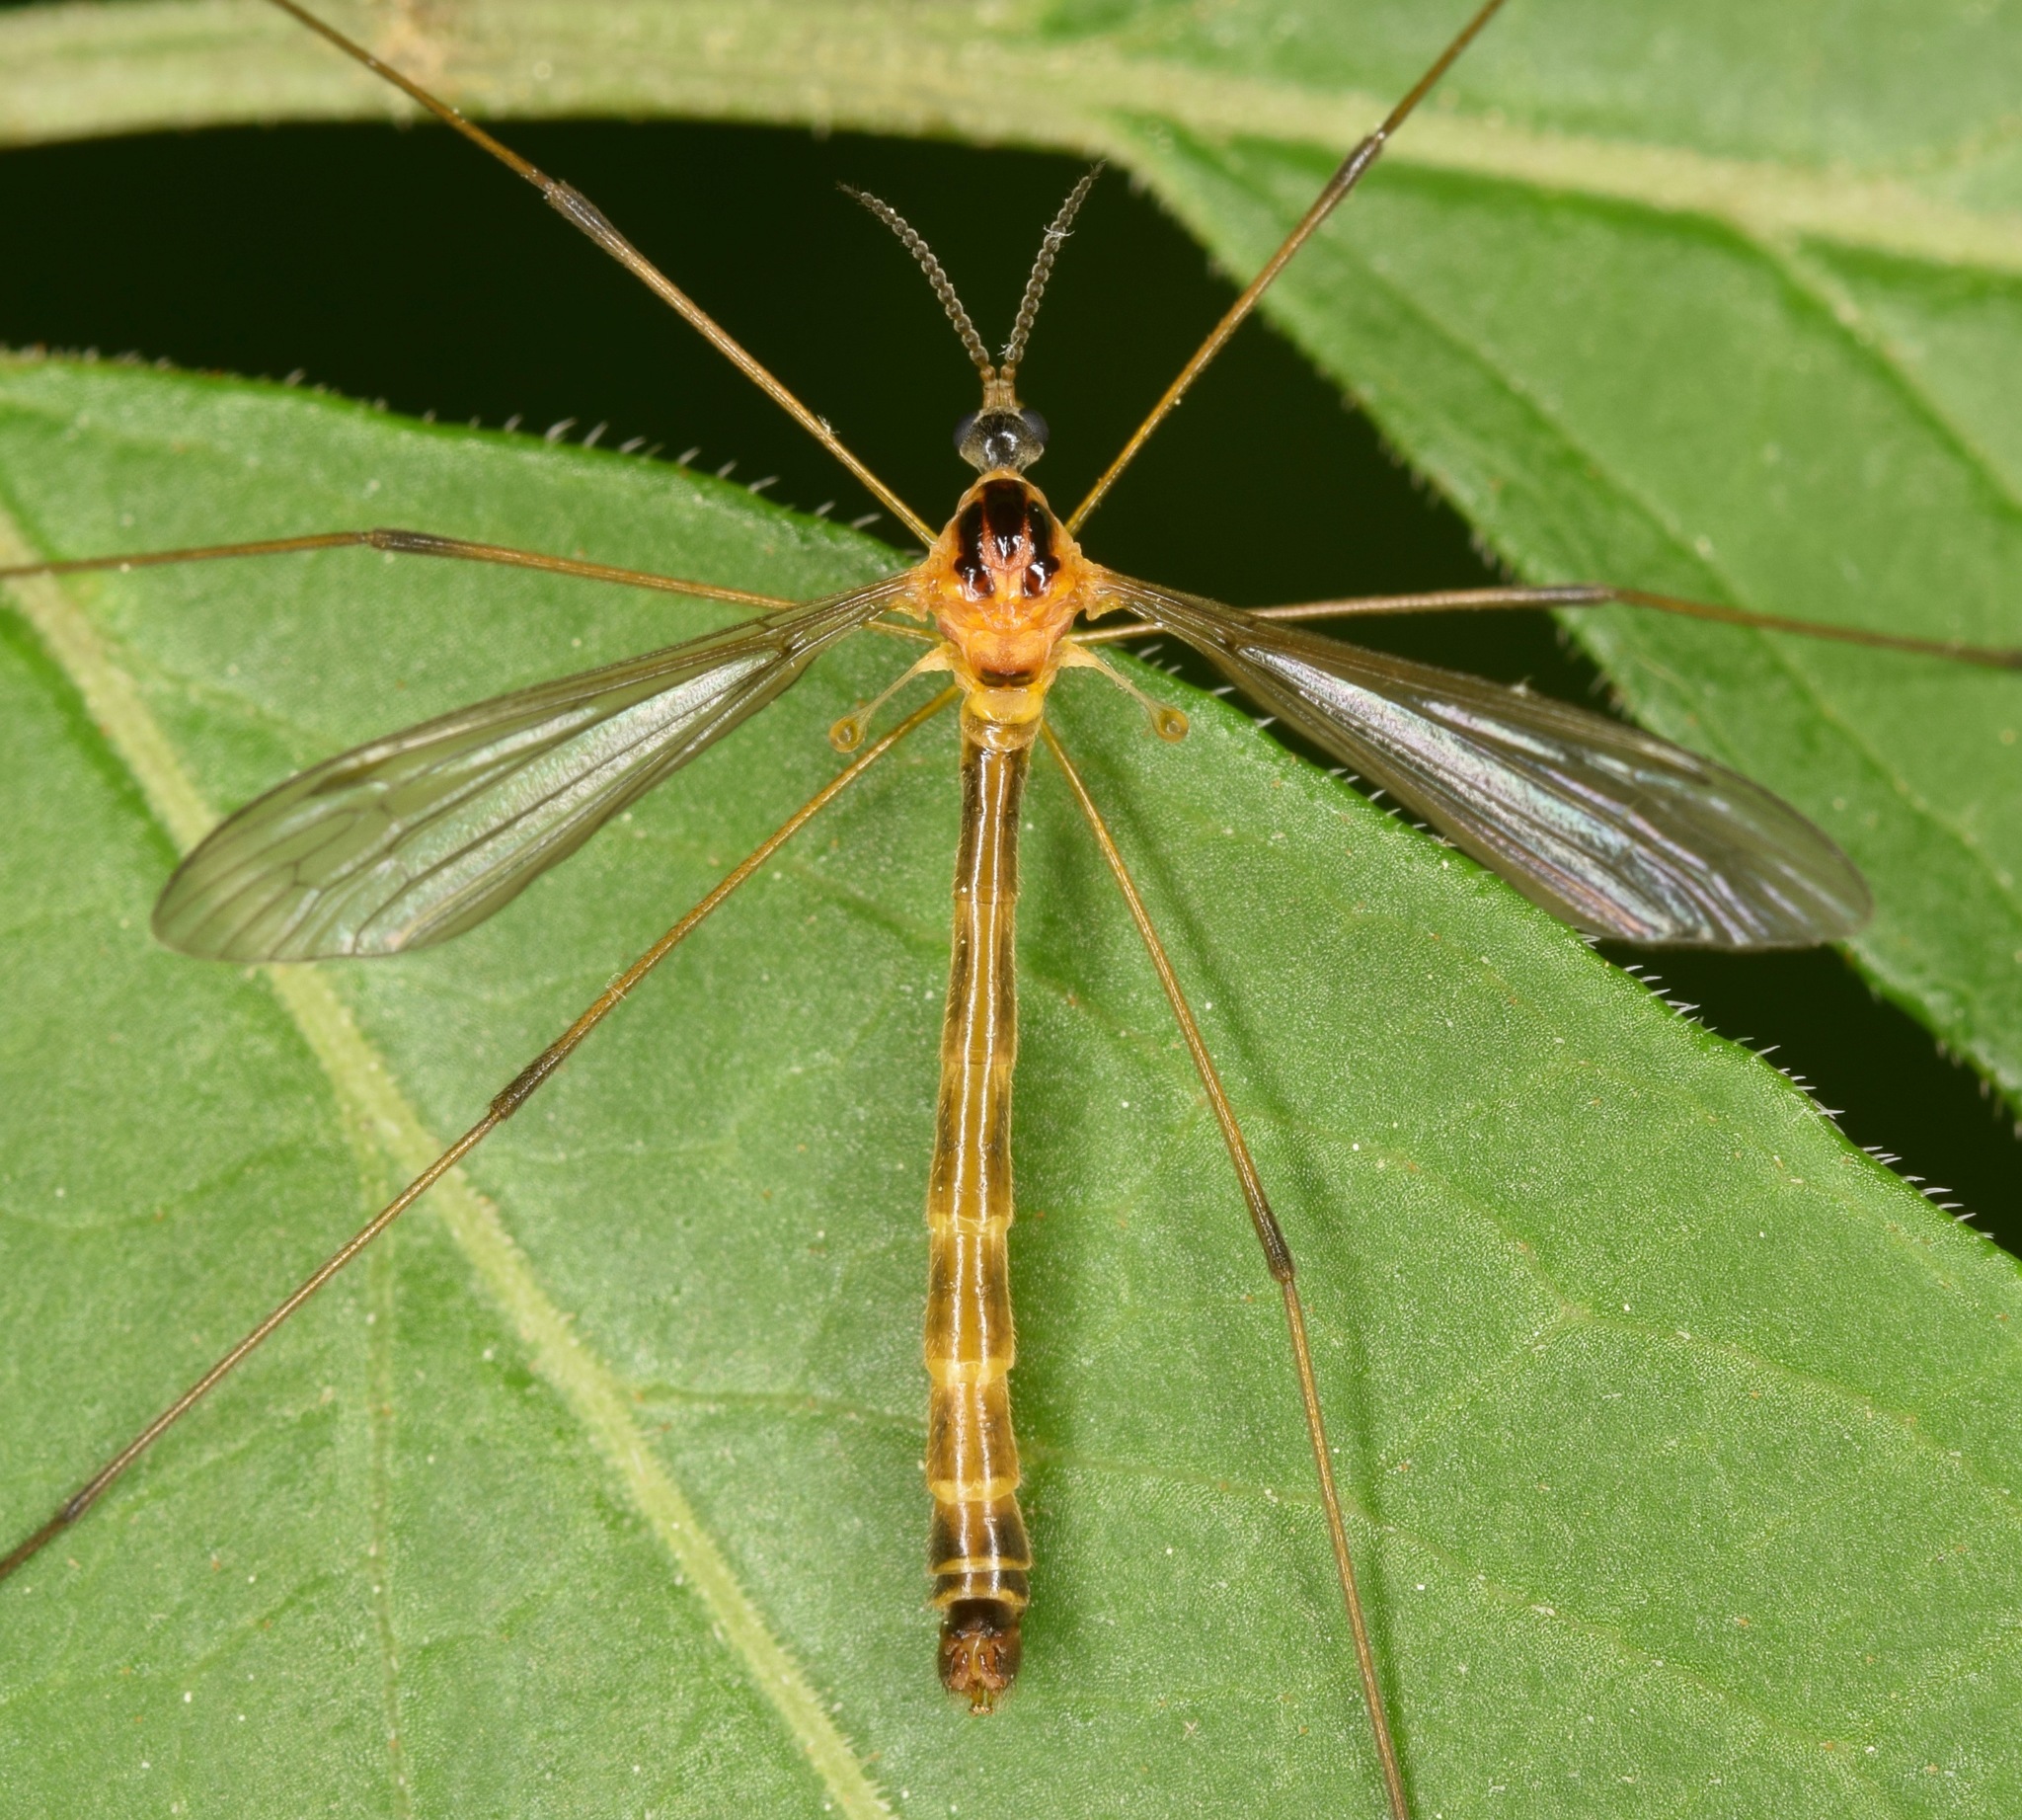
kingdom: Animalia
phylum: Arthropoda
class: Insecta
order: Diptera
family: Cylindrotomidae
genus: Liogma
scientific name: Liogma nodicornis
